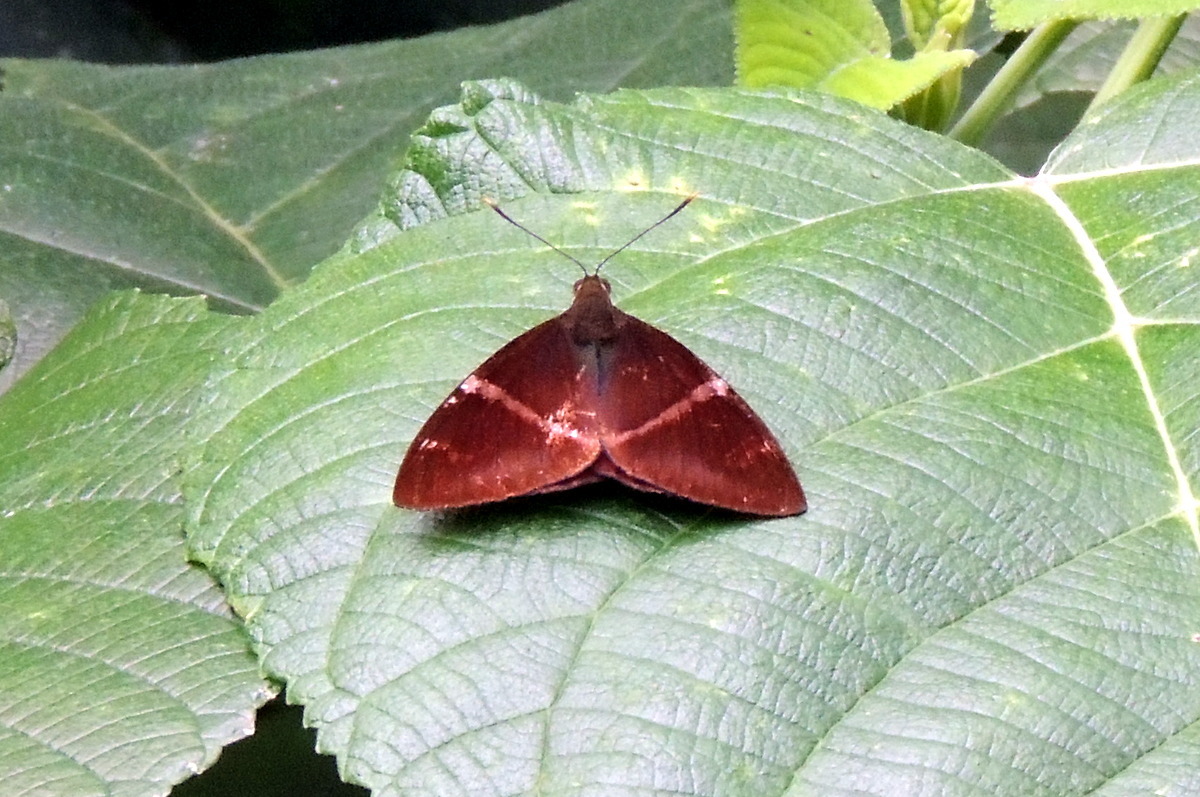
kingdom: Animalia
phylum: Arthropoda
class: Insecta
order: Lepidoptera
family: Castniidae
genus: Castniomera
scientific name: Castniomera atymnius
